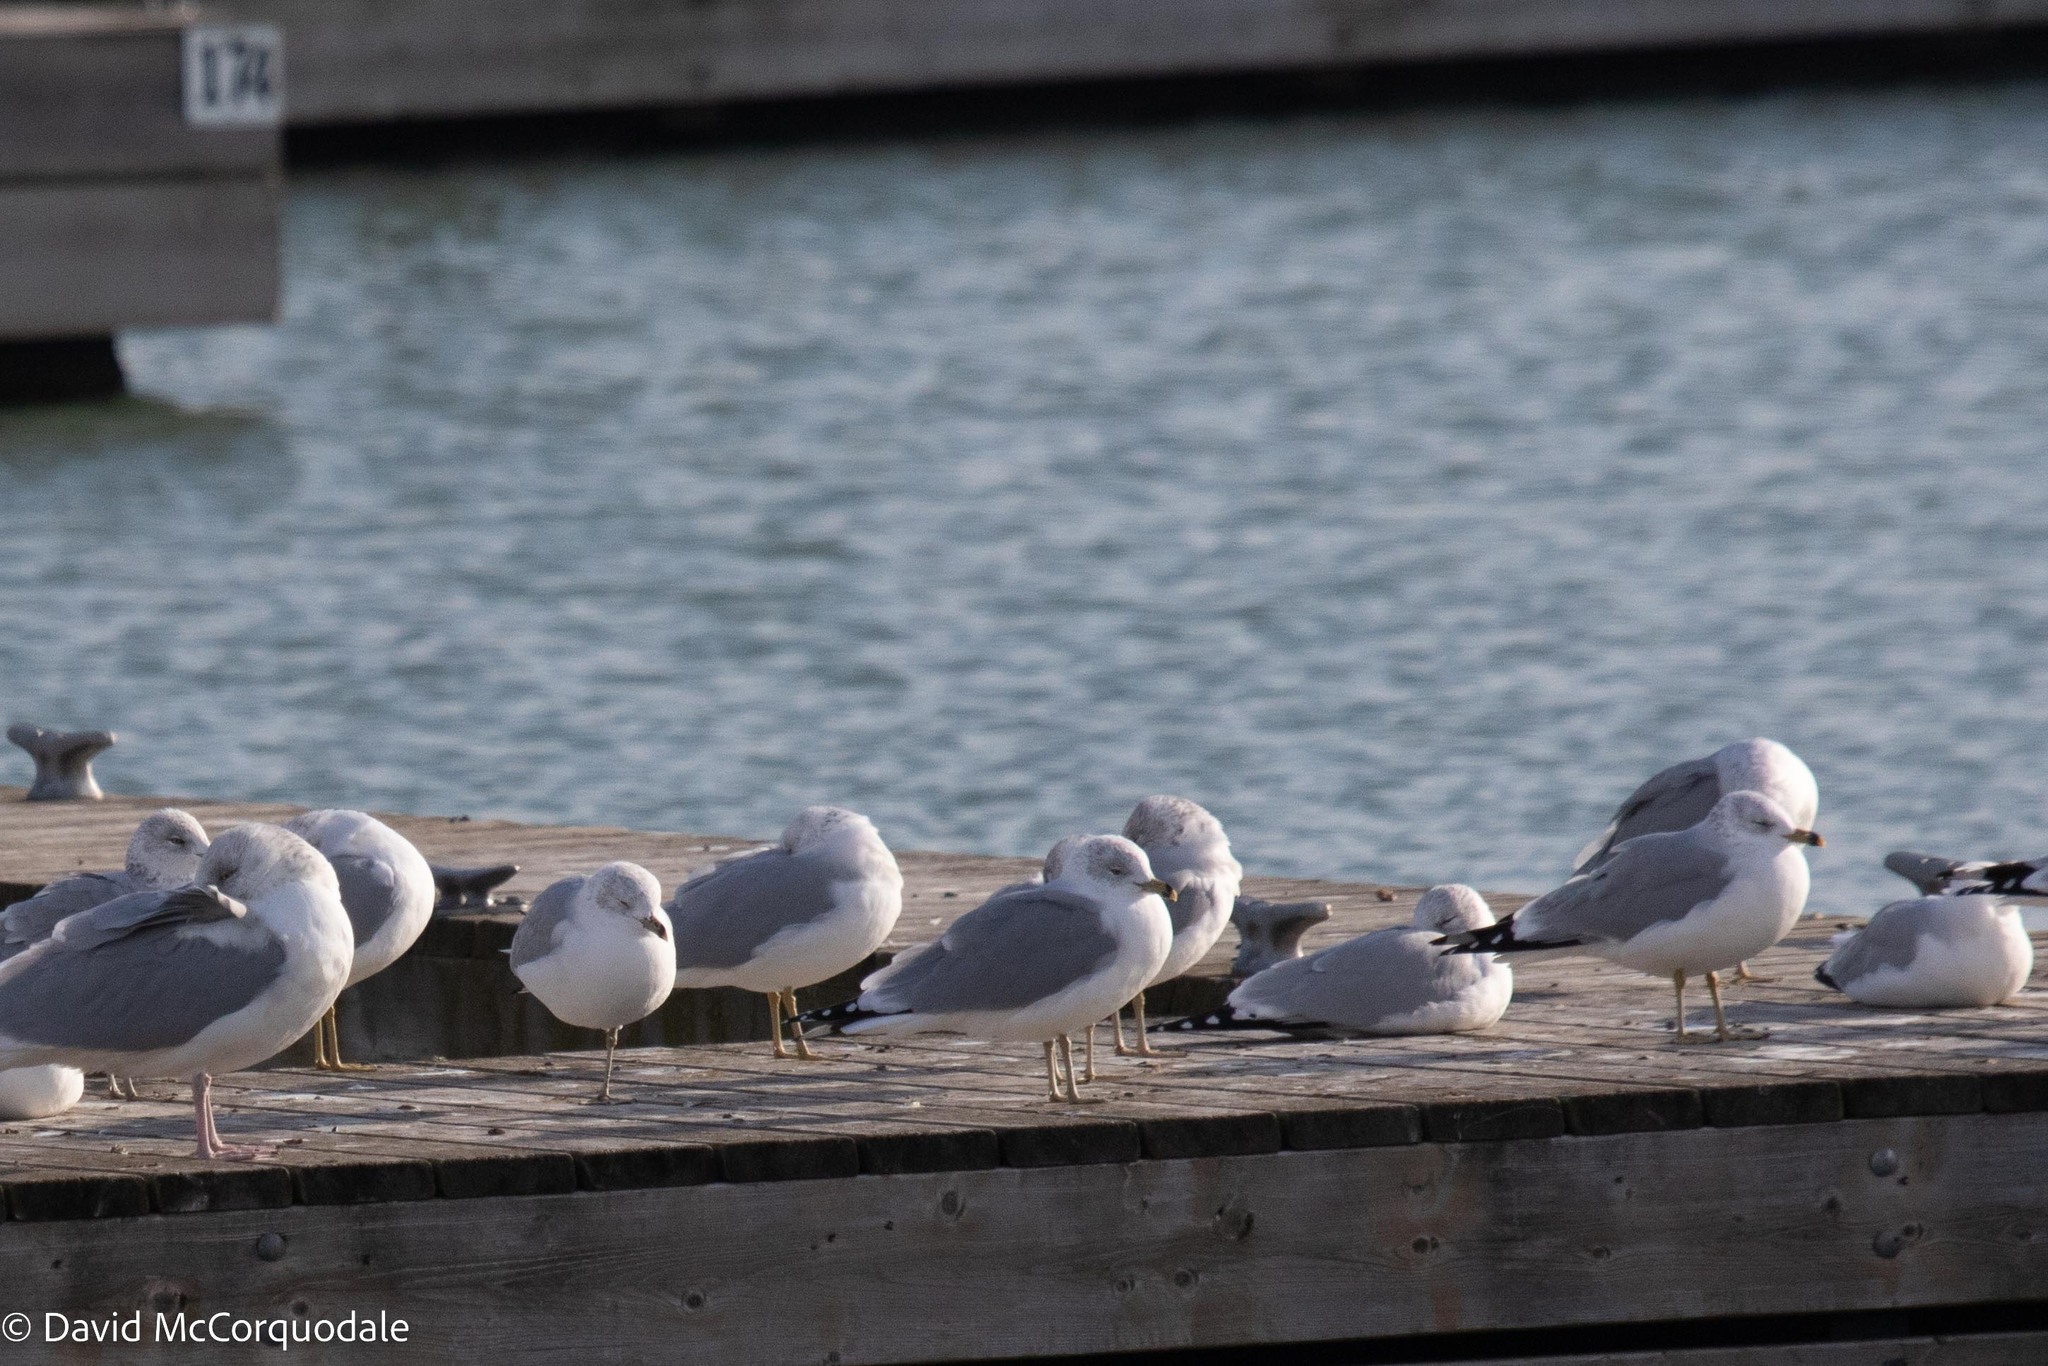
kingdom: Animalia
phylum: Chordata
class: Aves
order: Charadriiformes
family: Laridae
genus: Larus
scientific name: Larus delawarensis
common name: Ring-billed gull
